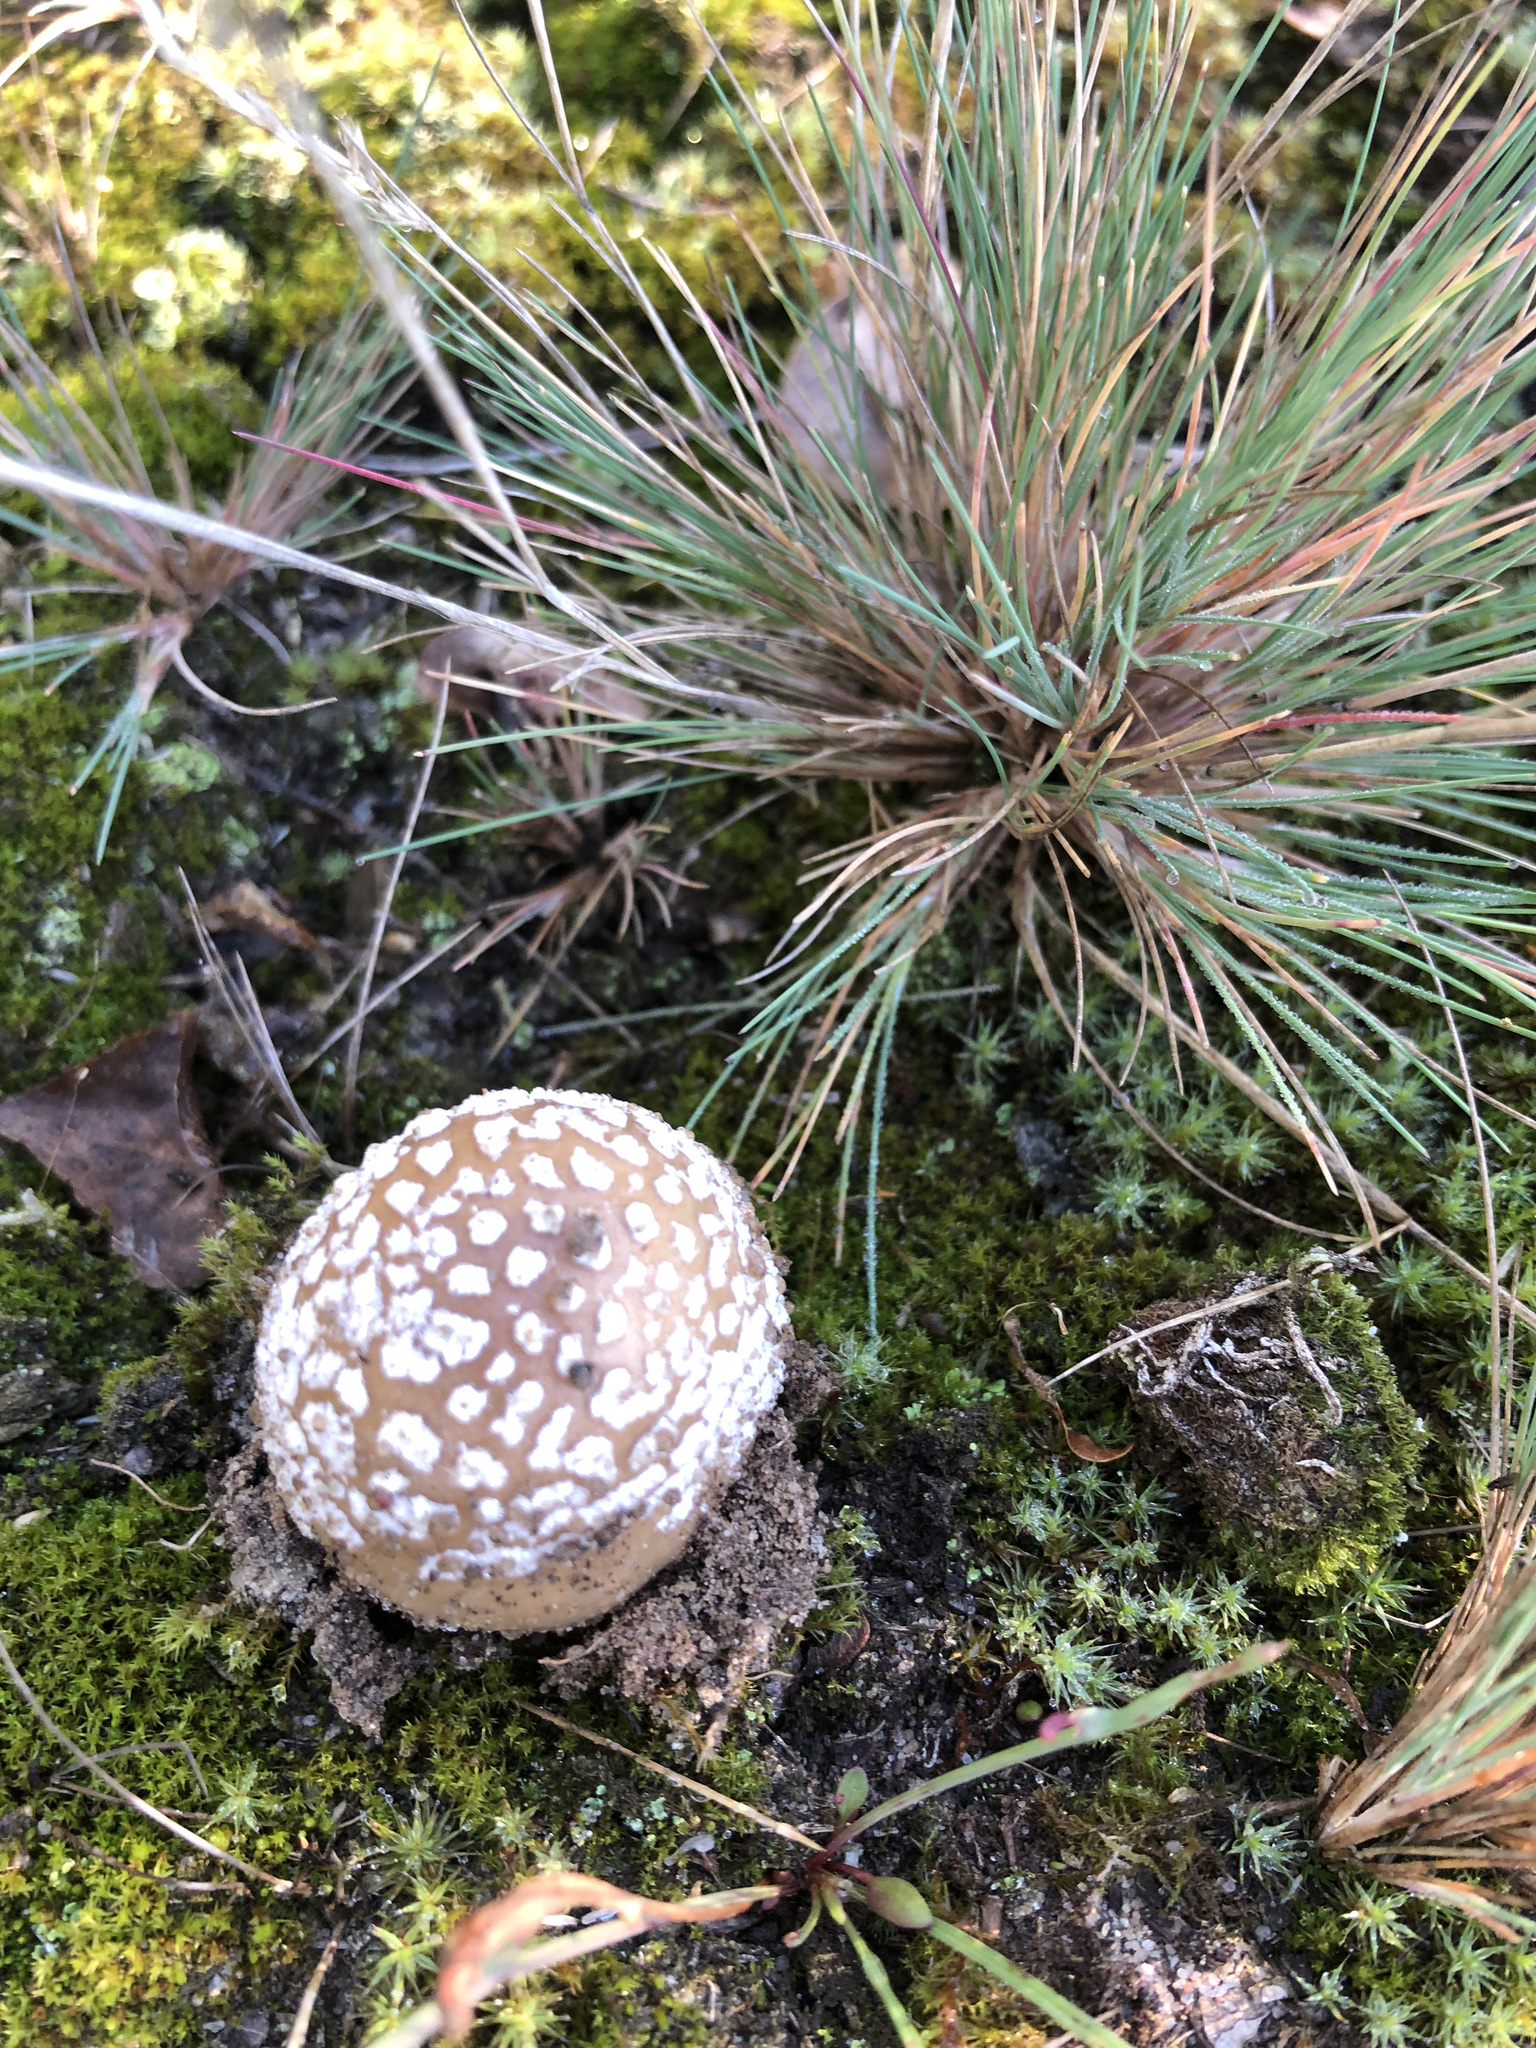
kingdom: Fungi
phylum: Basidiomycota
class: Agaricomycetes
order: Agaricales
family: Amanitaceae
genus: Amanita
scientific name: Amanita pantherina
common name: Panthercap
